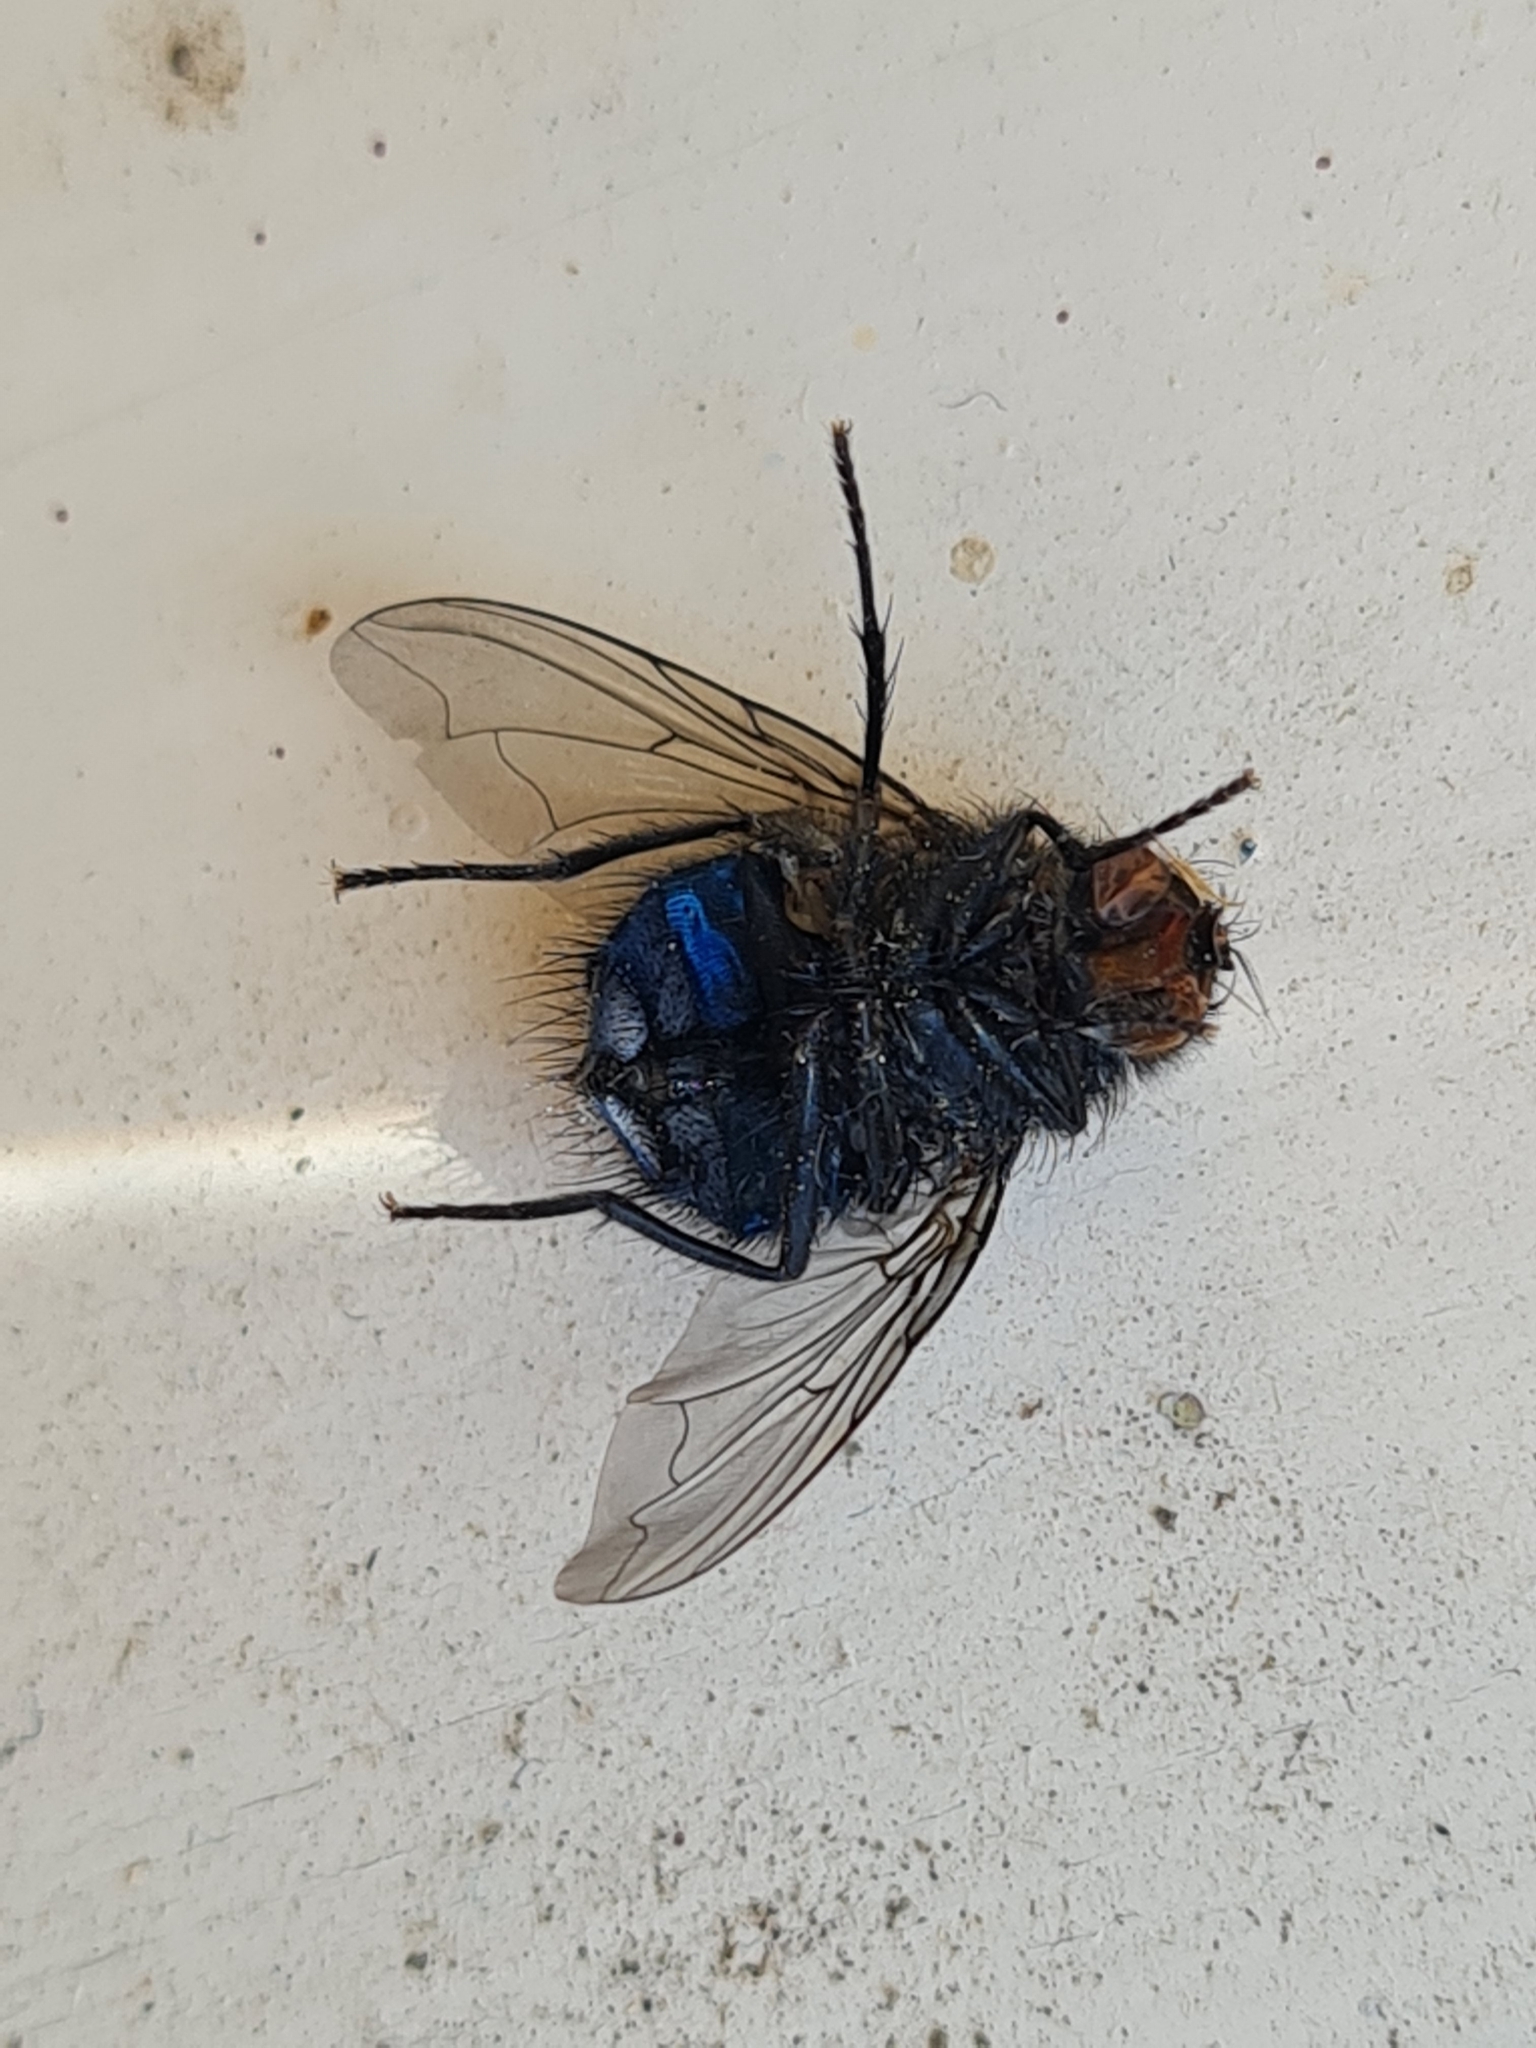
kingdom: Animalia
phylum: Arthropoda
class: Insecta
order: Diptera
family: Calliphoridae
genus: Calliphora
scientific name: Calliphora vicina
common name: Common blow flie
